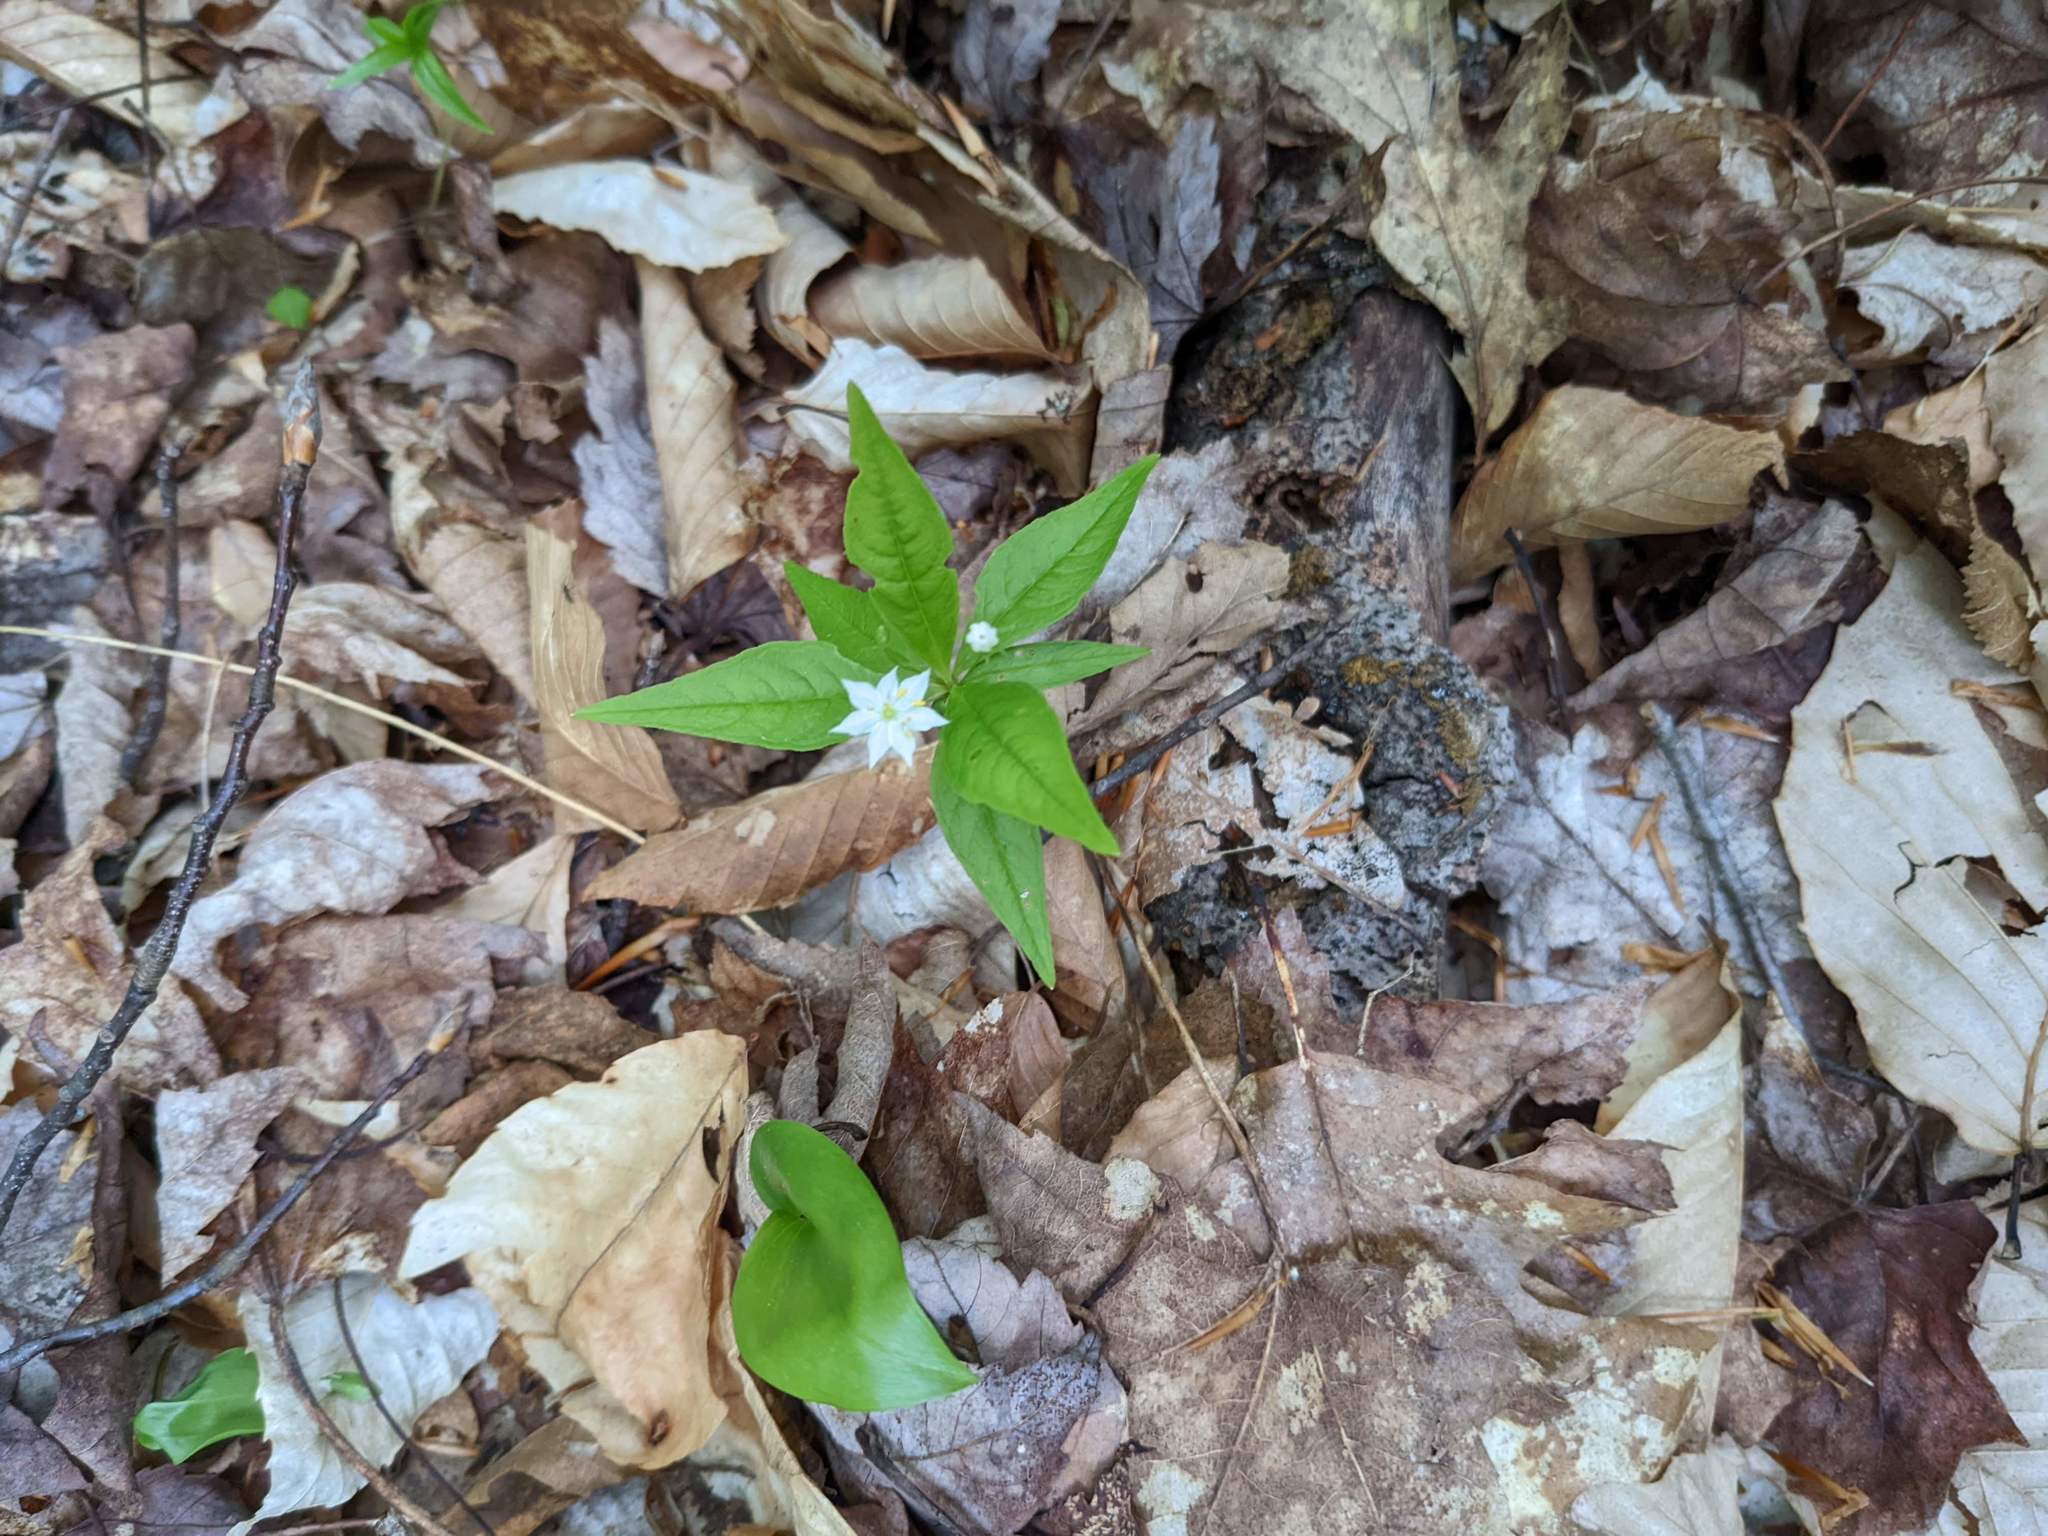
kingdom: Plantae
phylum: Tracheophyta
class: Magnoliopsida
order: Ericales
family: Primulaceae
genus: Lysimachia
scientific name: Lysimachia borealis
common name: American starflower
